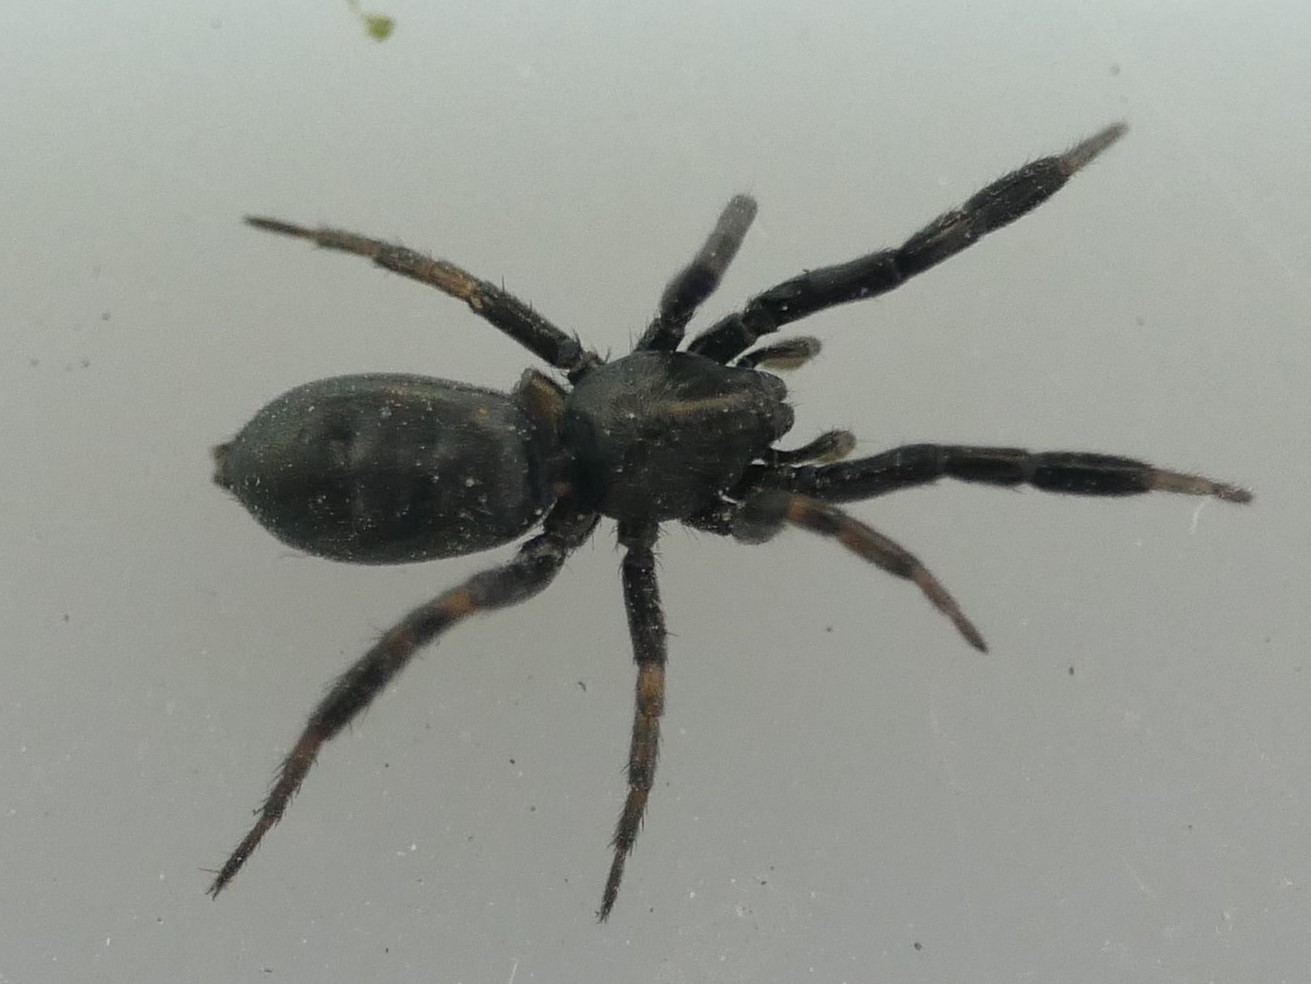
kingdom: Animalia
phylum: Arthropoda
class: Arachnida
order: Araneae
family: Gnaphosidae
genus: Setaphis
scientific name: Setaphis carmeli
